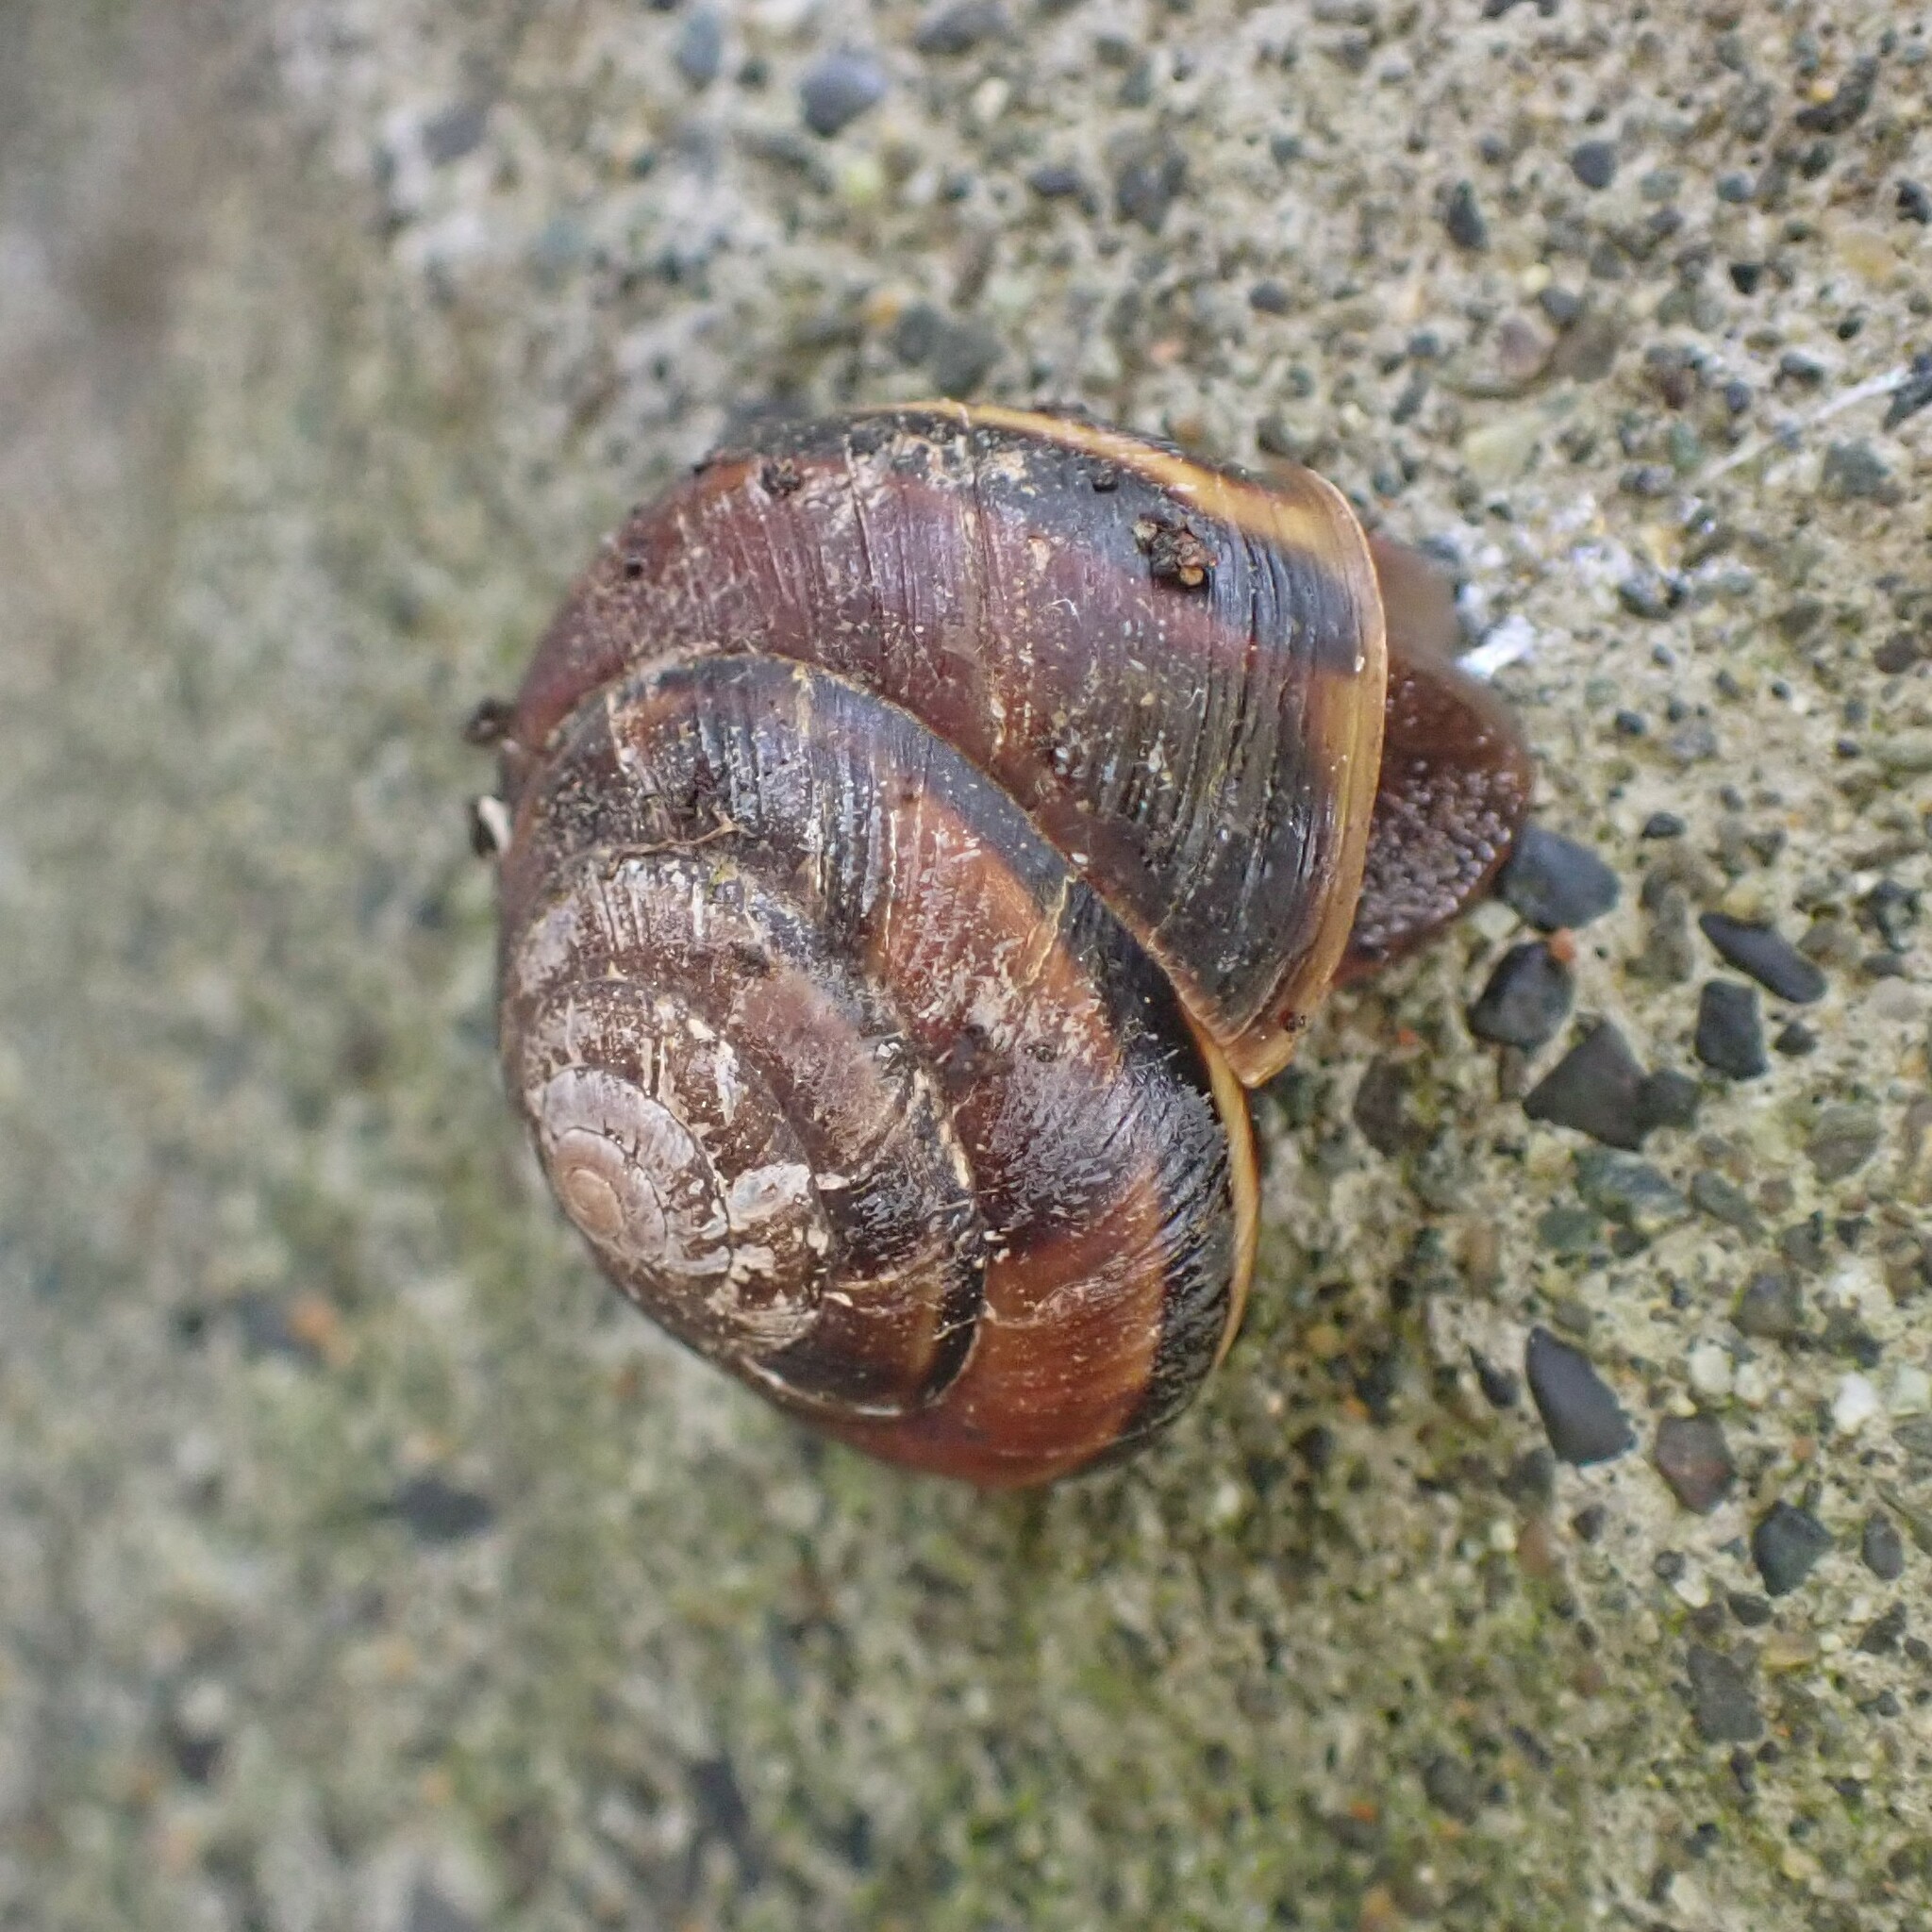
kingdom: Animalia
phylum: Mollusca
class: Gastropoda
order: Stylommatophora
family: Xanthonychidae
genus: Monadenia
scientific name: Monadenia fidelis
